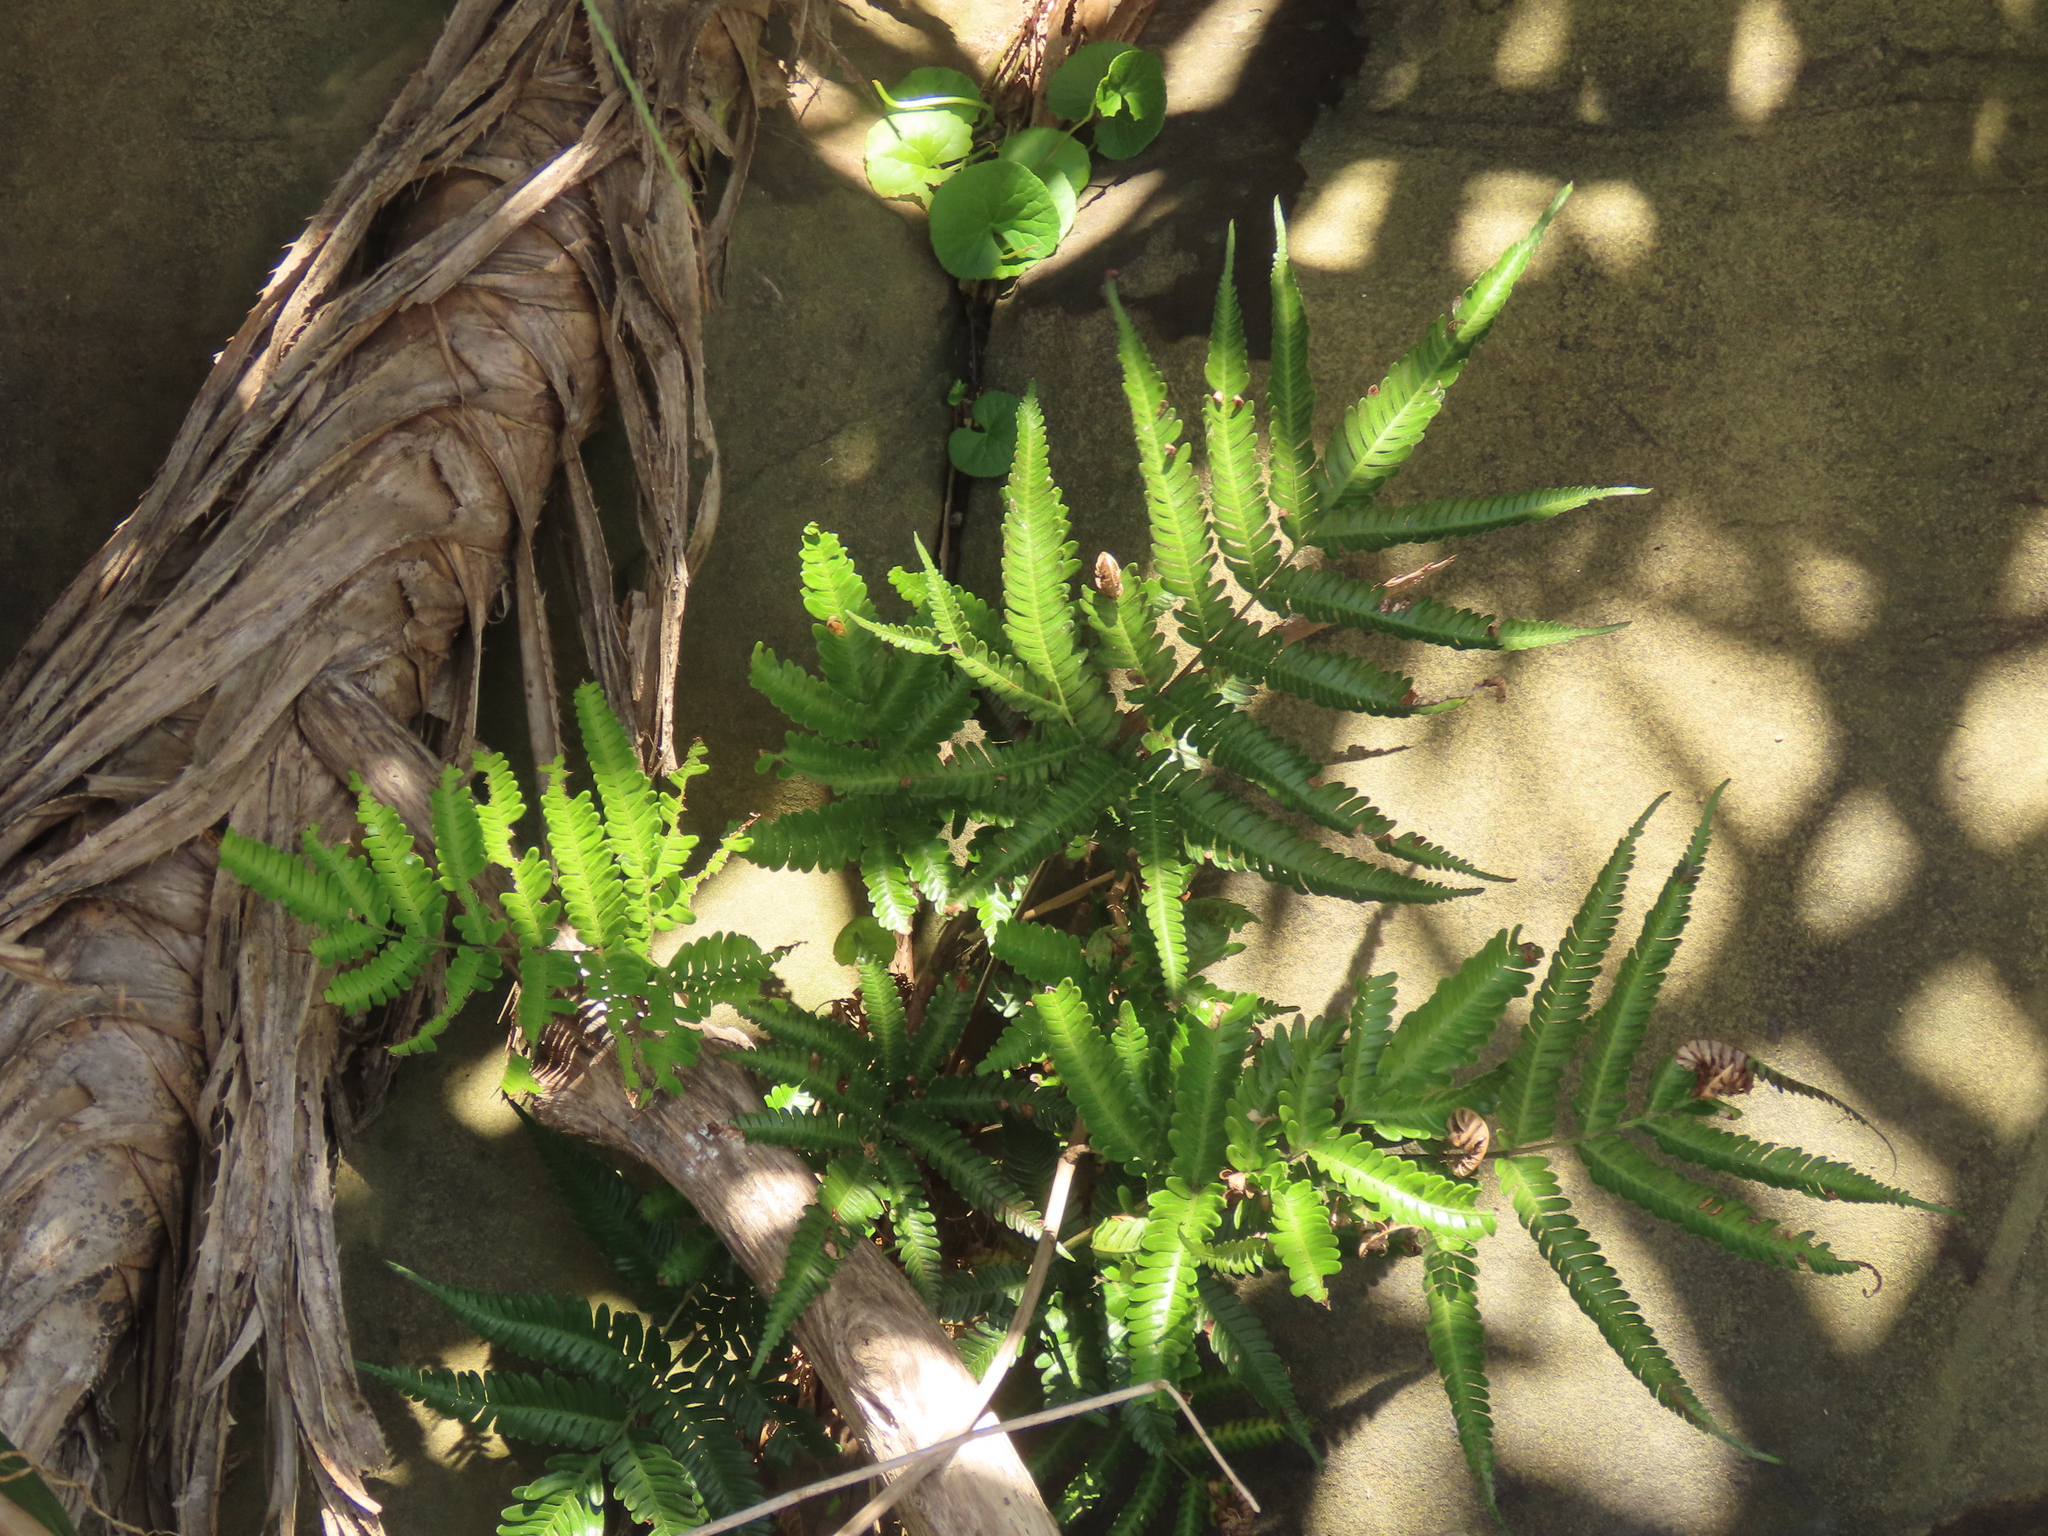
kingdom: Plantae
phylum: Tracheophyta
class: Polypodiopsida
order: Polypodiales
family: Pteridaceae
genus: Pteris
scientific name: Pteris minor
